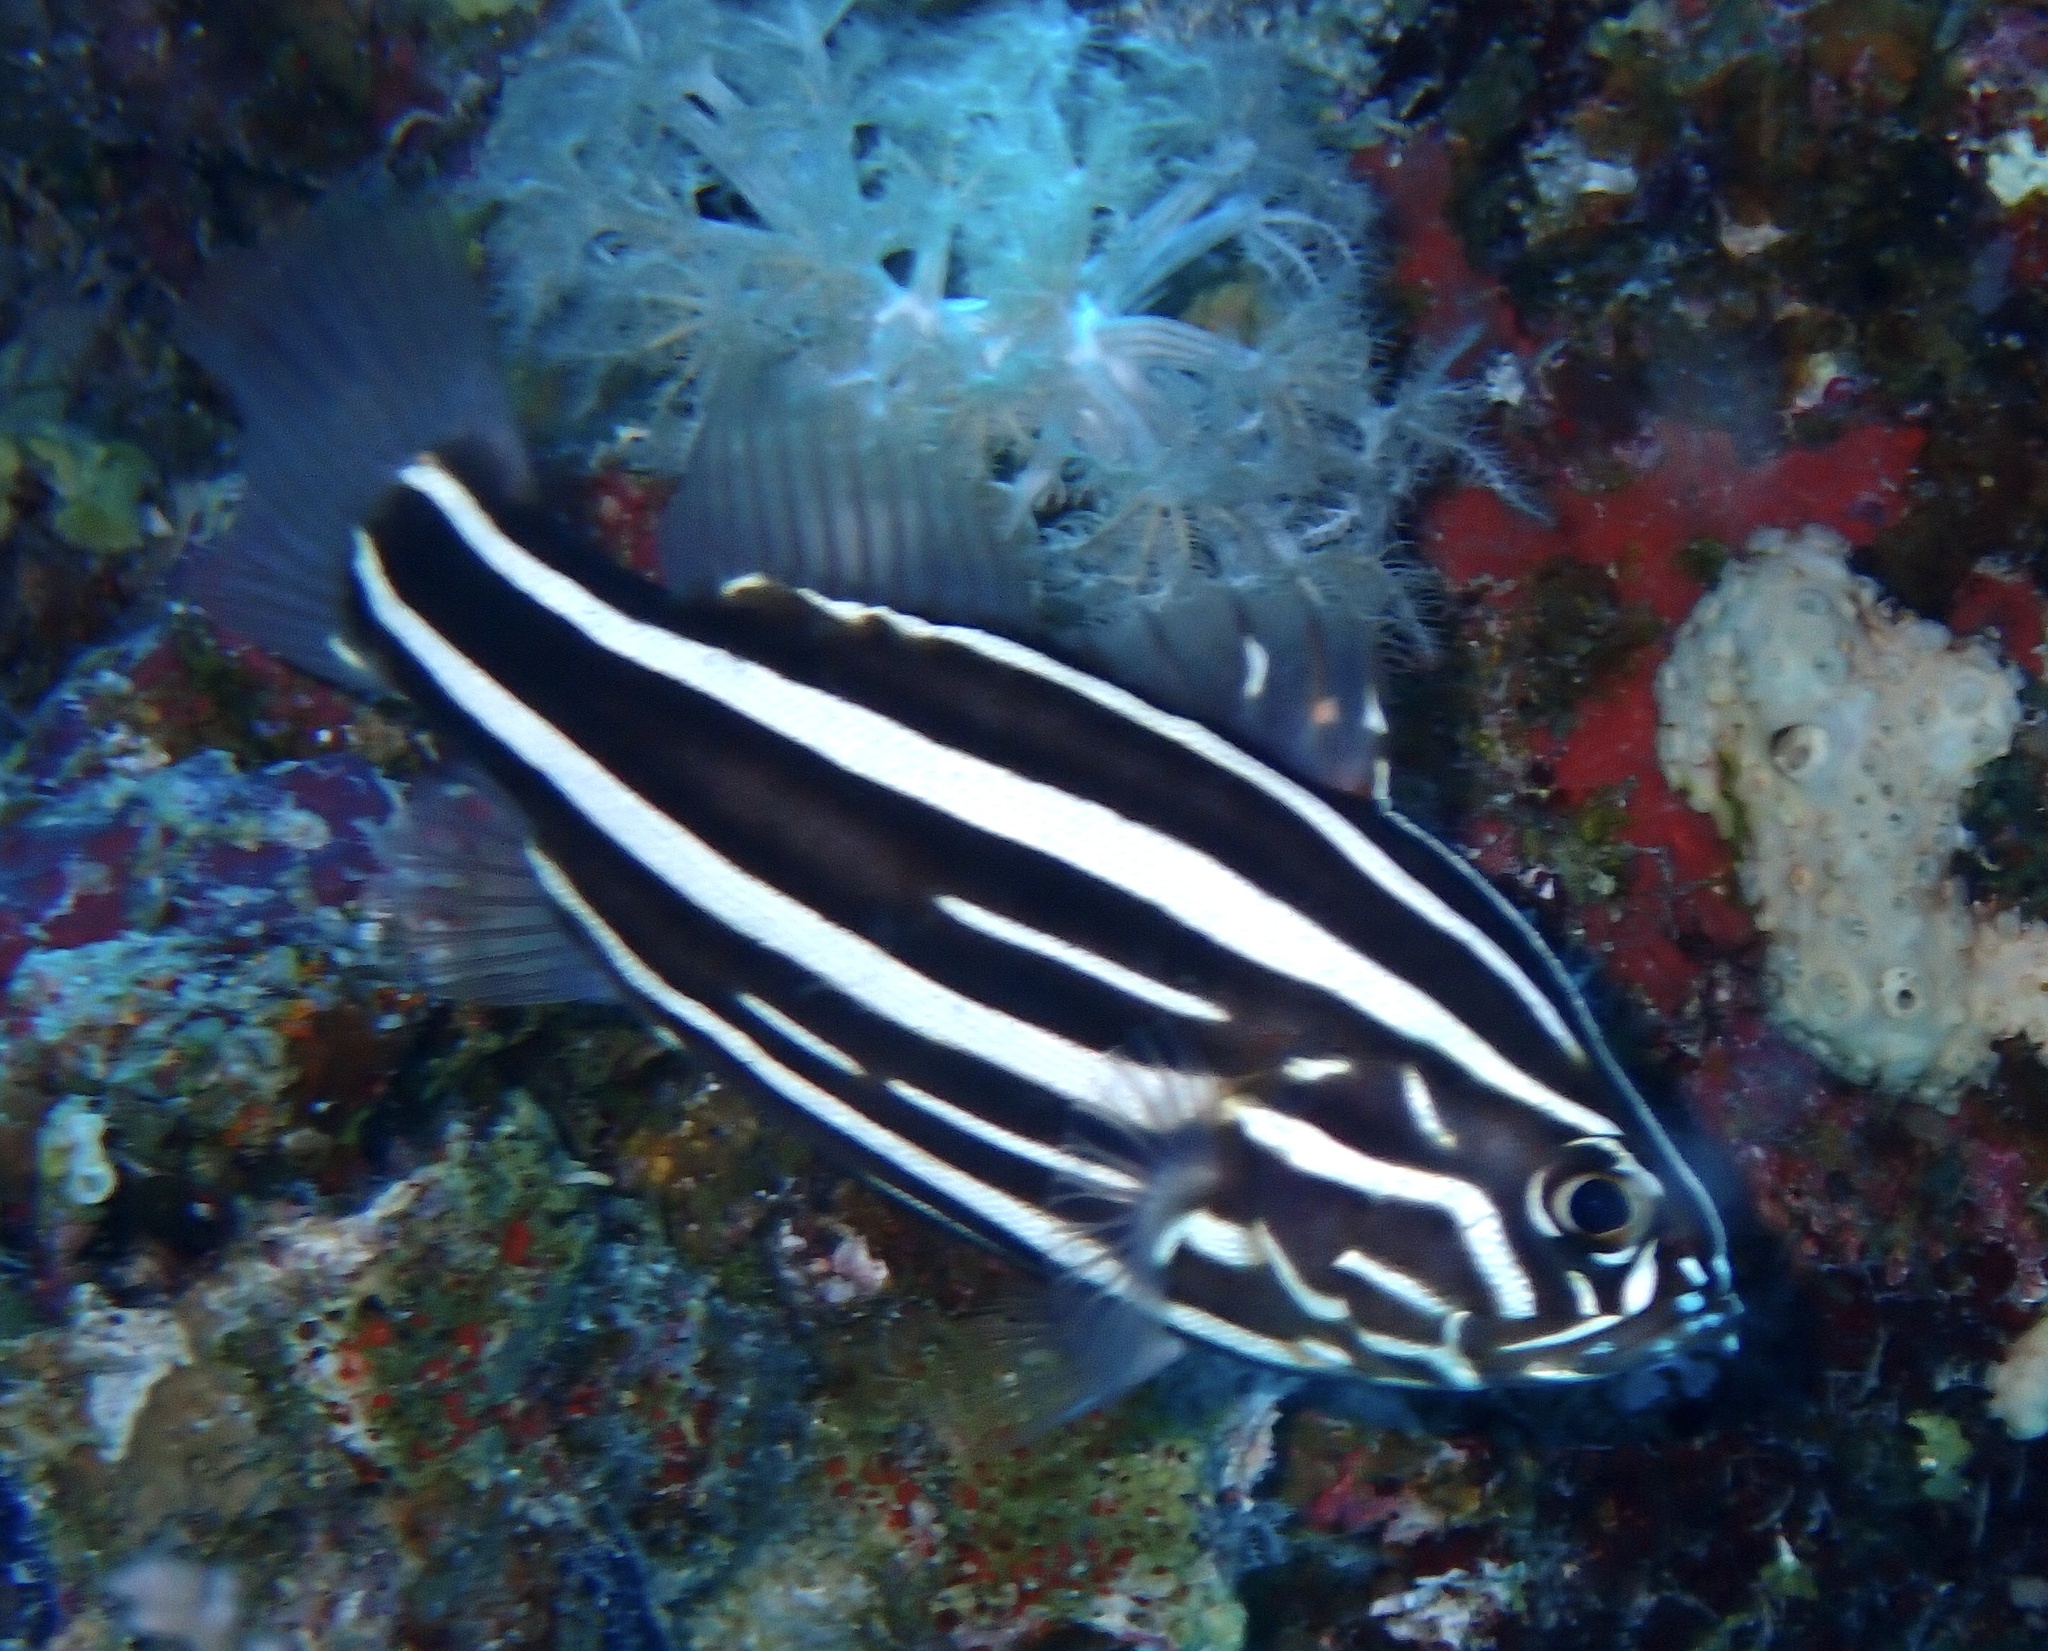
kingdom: Animalia
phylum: Chordata
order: Perciformes
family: Serranidae
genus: Grammistes
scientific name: Grammistes sexlineatus
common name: Sixline soapfish
